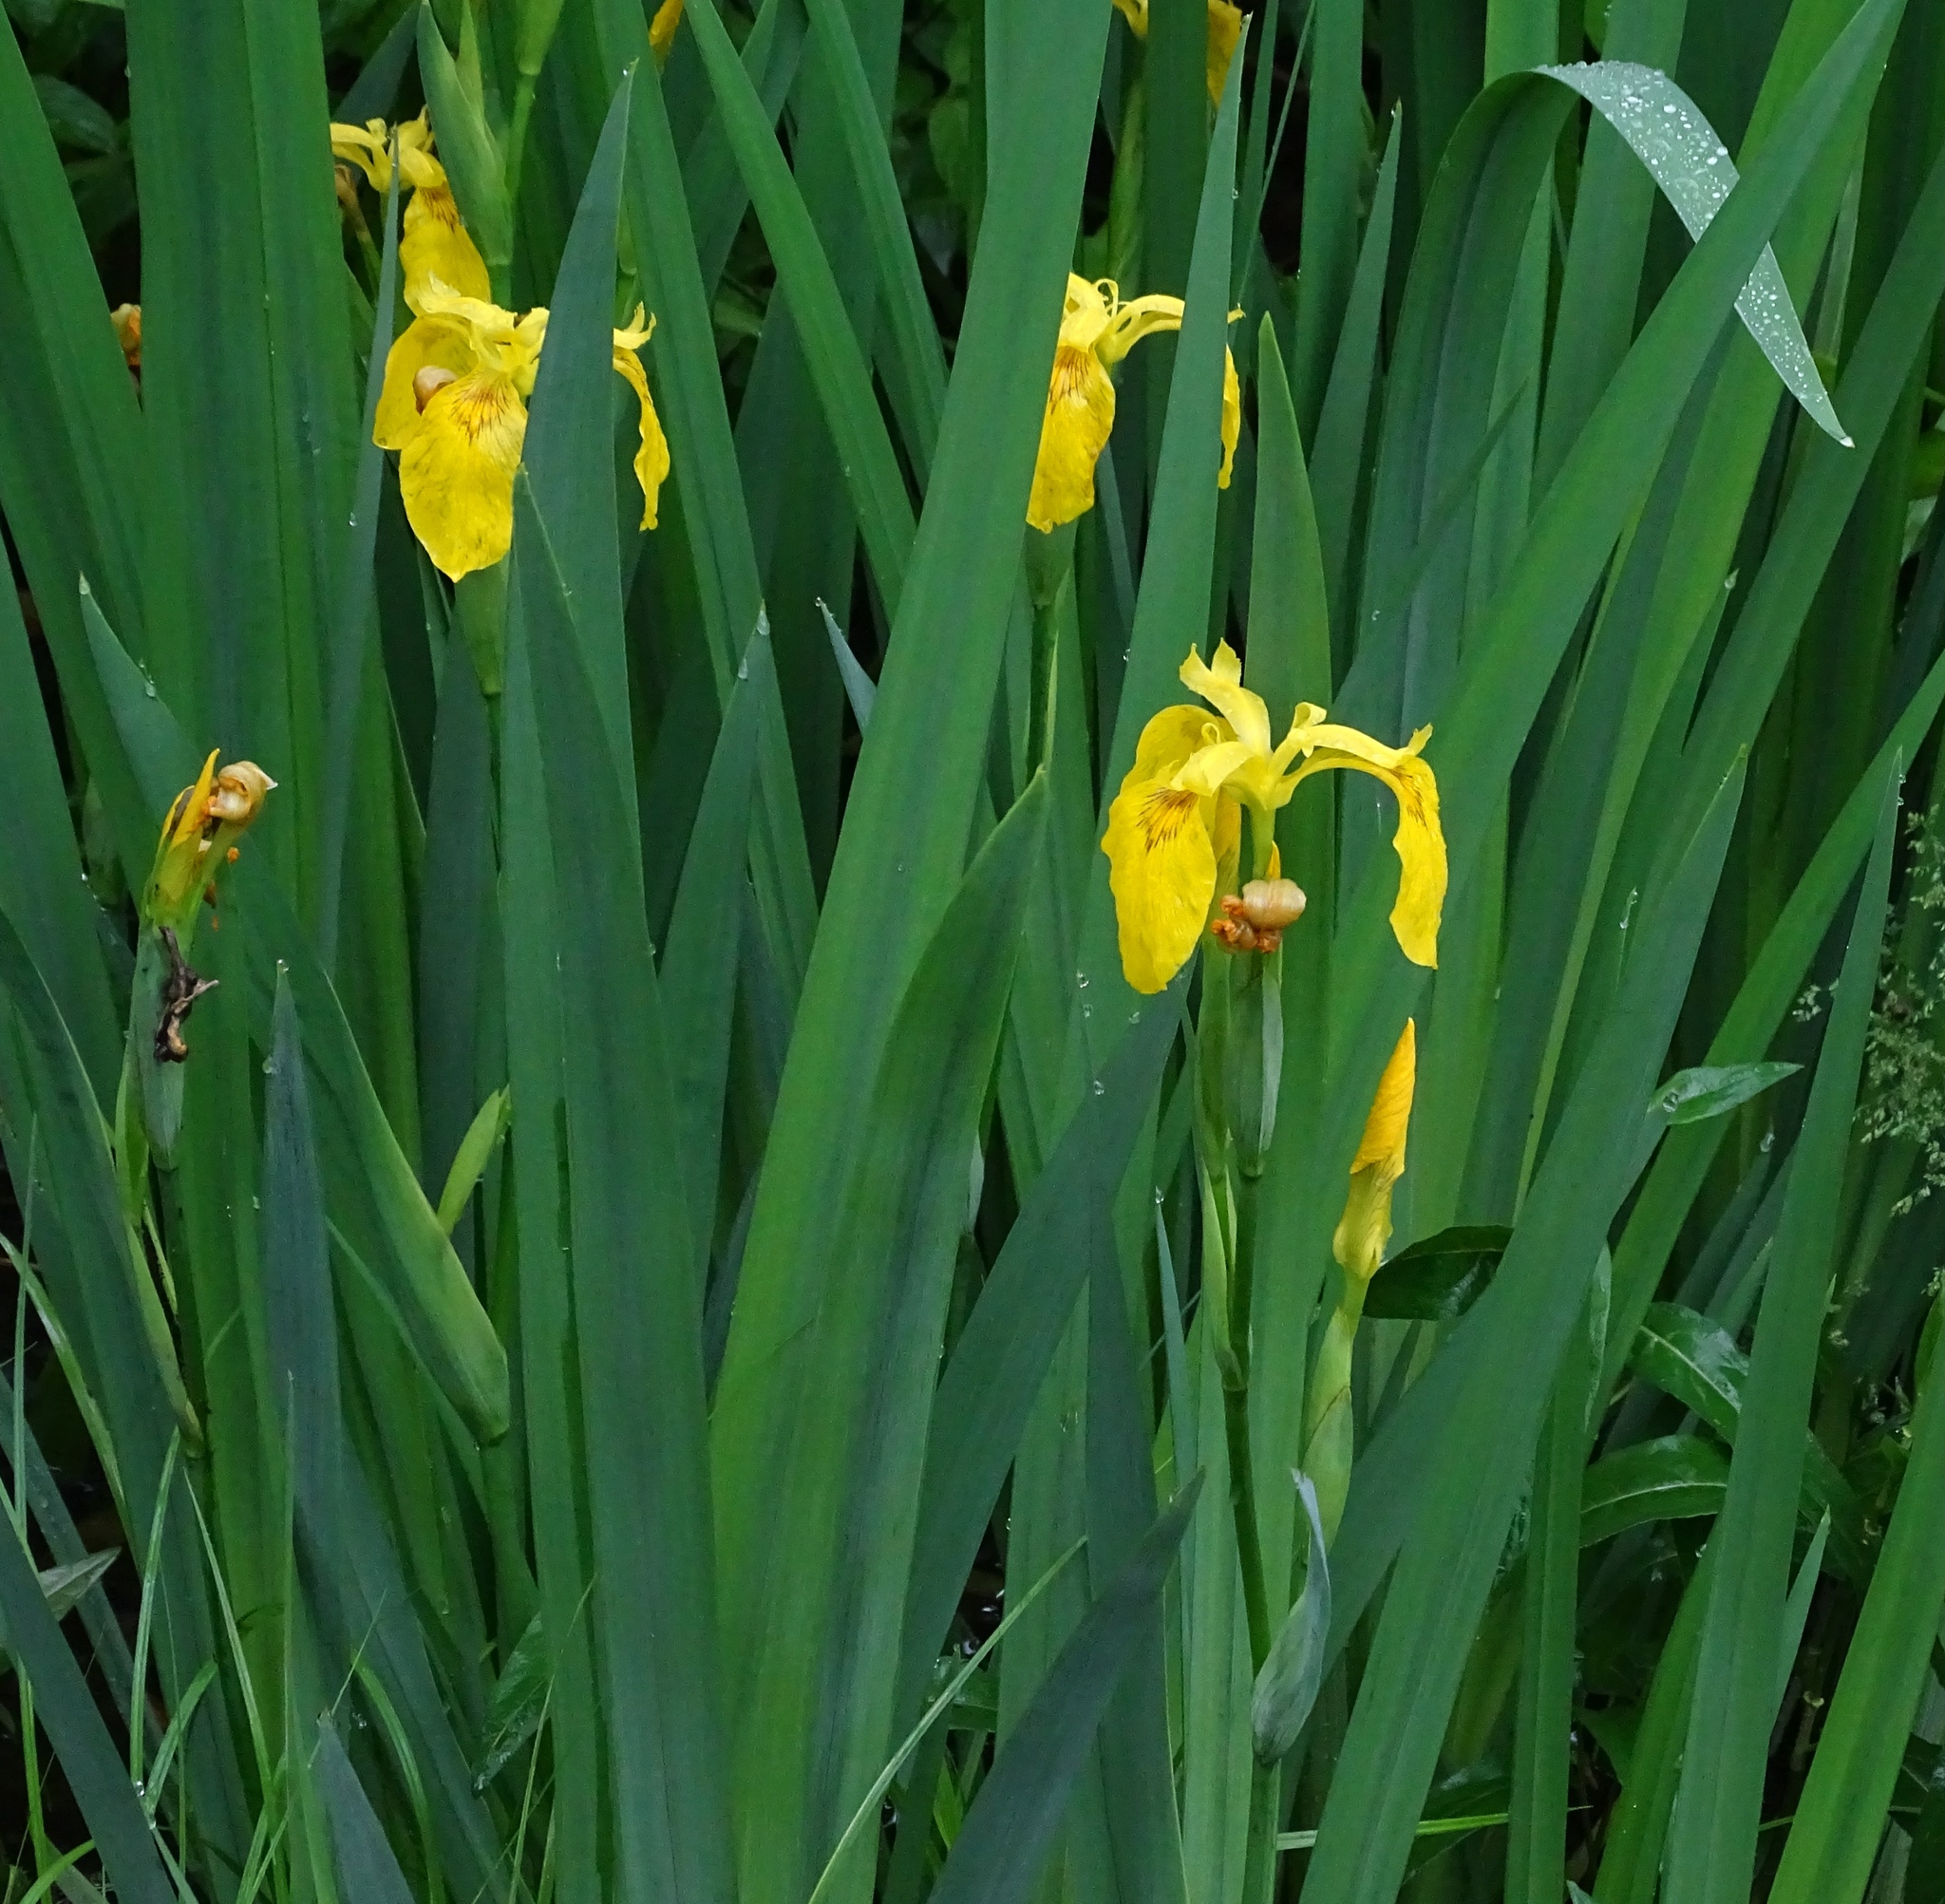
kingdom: Plantae
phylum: Tracheophyta
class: Liliopsida
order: Asparagales
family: Iridaceae
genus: Iris
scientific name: Iris pseudacorus
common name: Yellow flag
